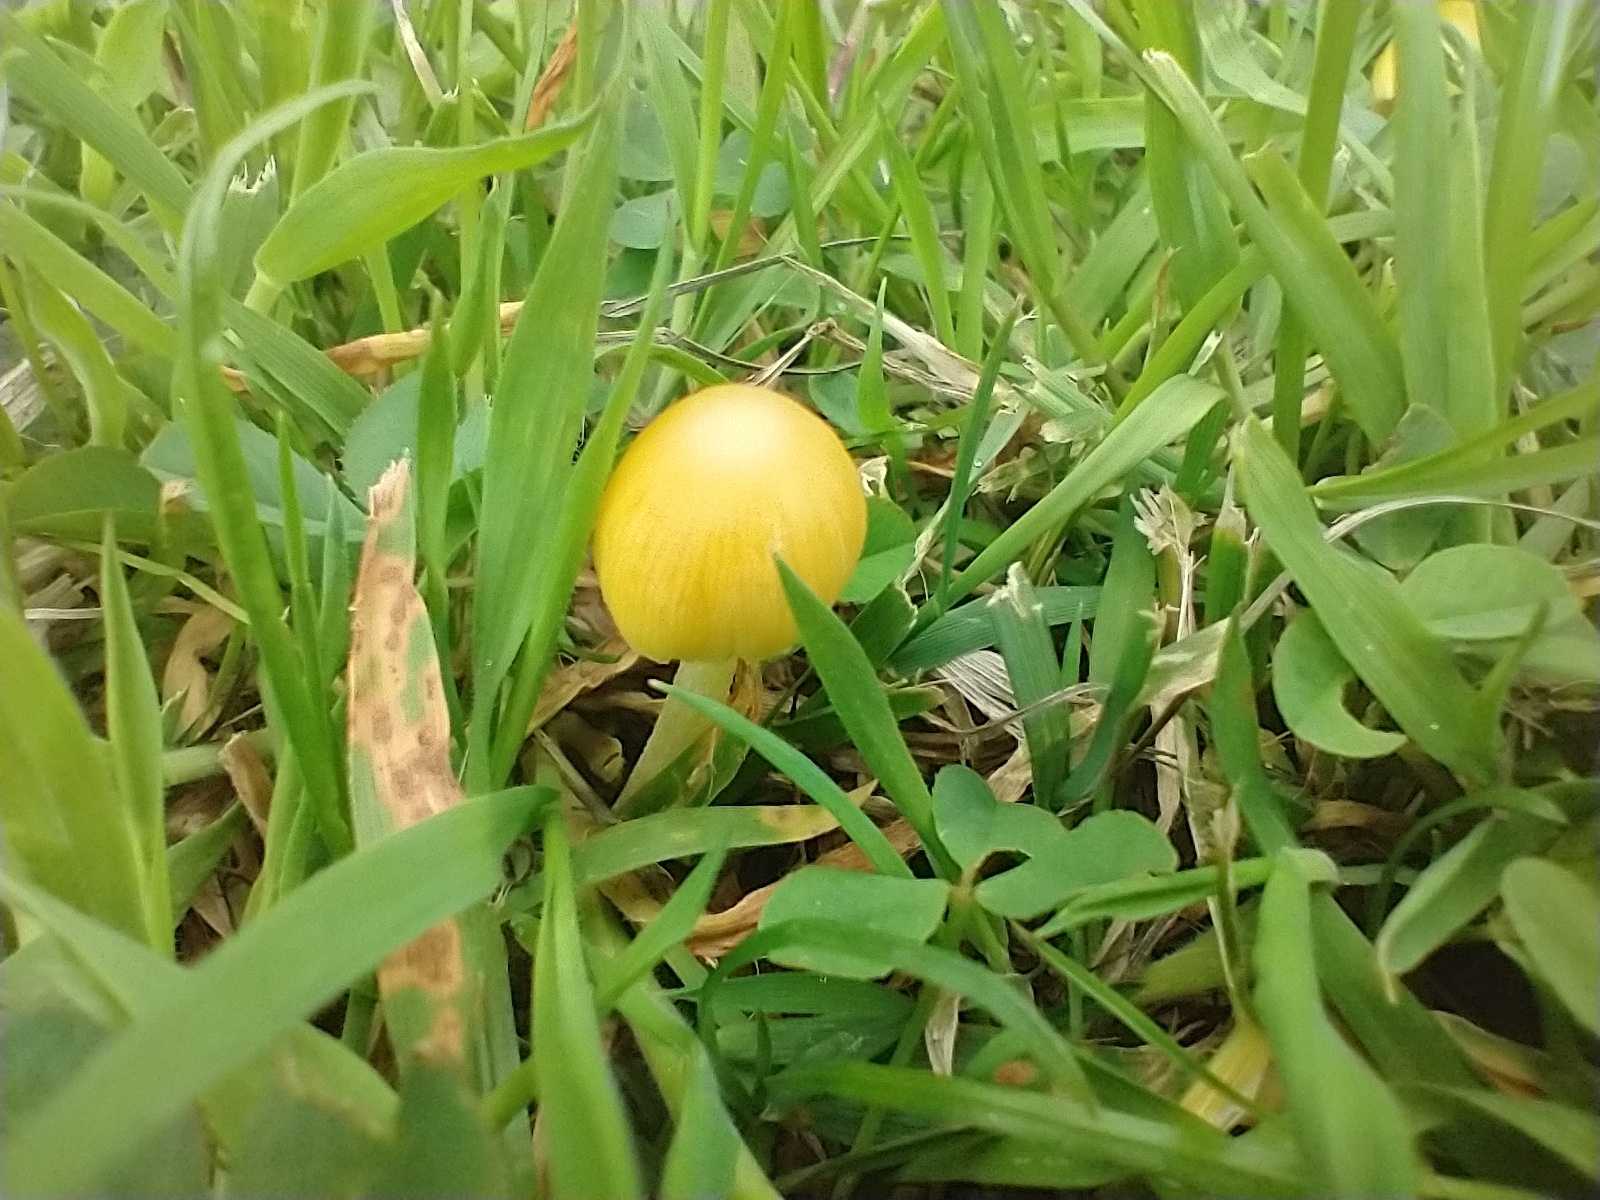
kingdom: Fungi
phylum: Basidiomycota
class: Agaricomycetes
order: Agaricales
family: Bolbitiaceae
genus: Bolbitius
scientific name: Bolbitius titubans
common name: Yellow fieldcap
